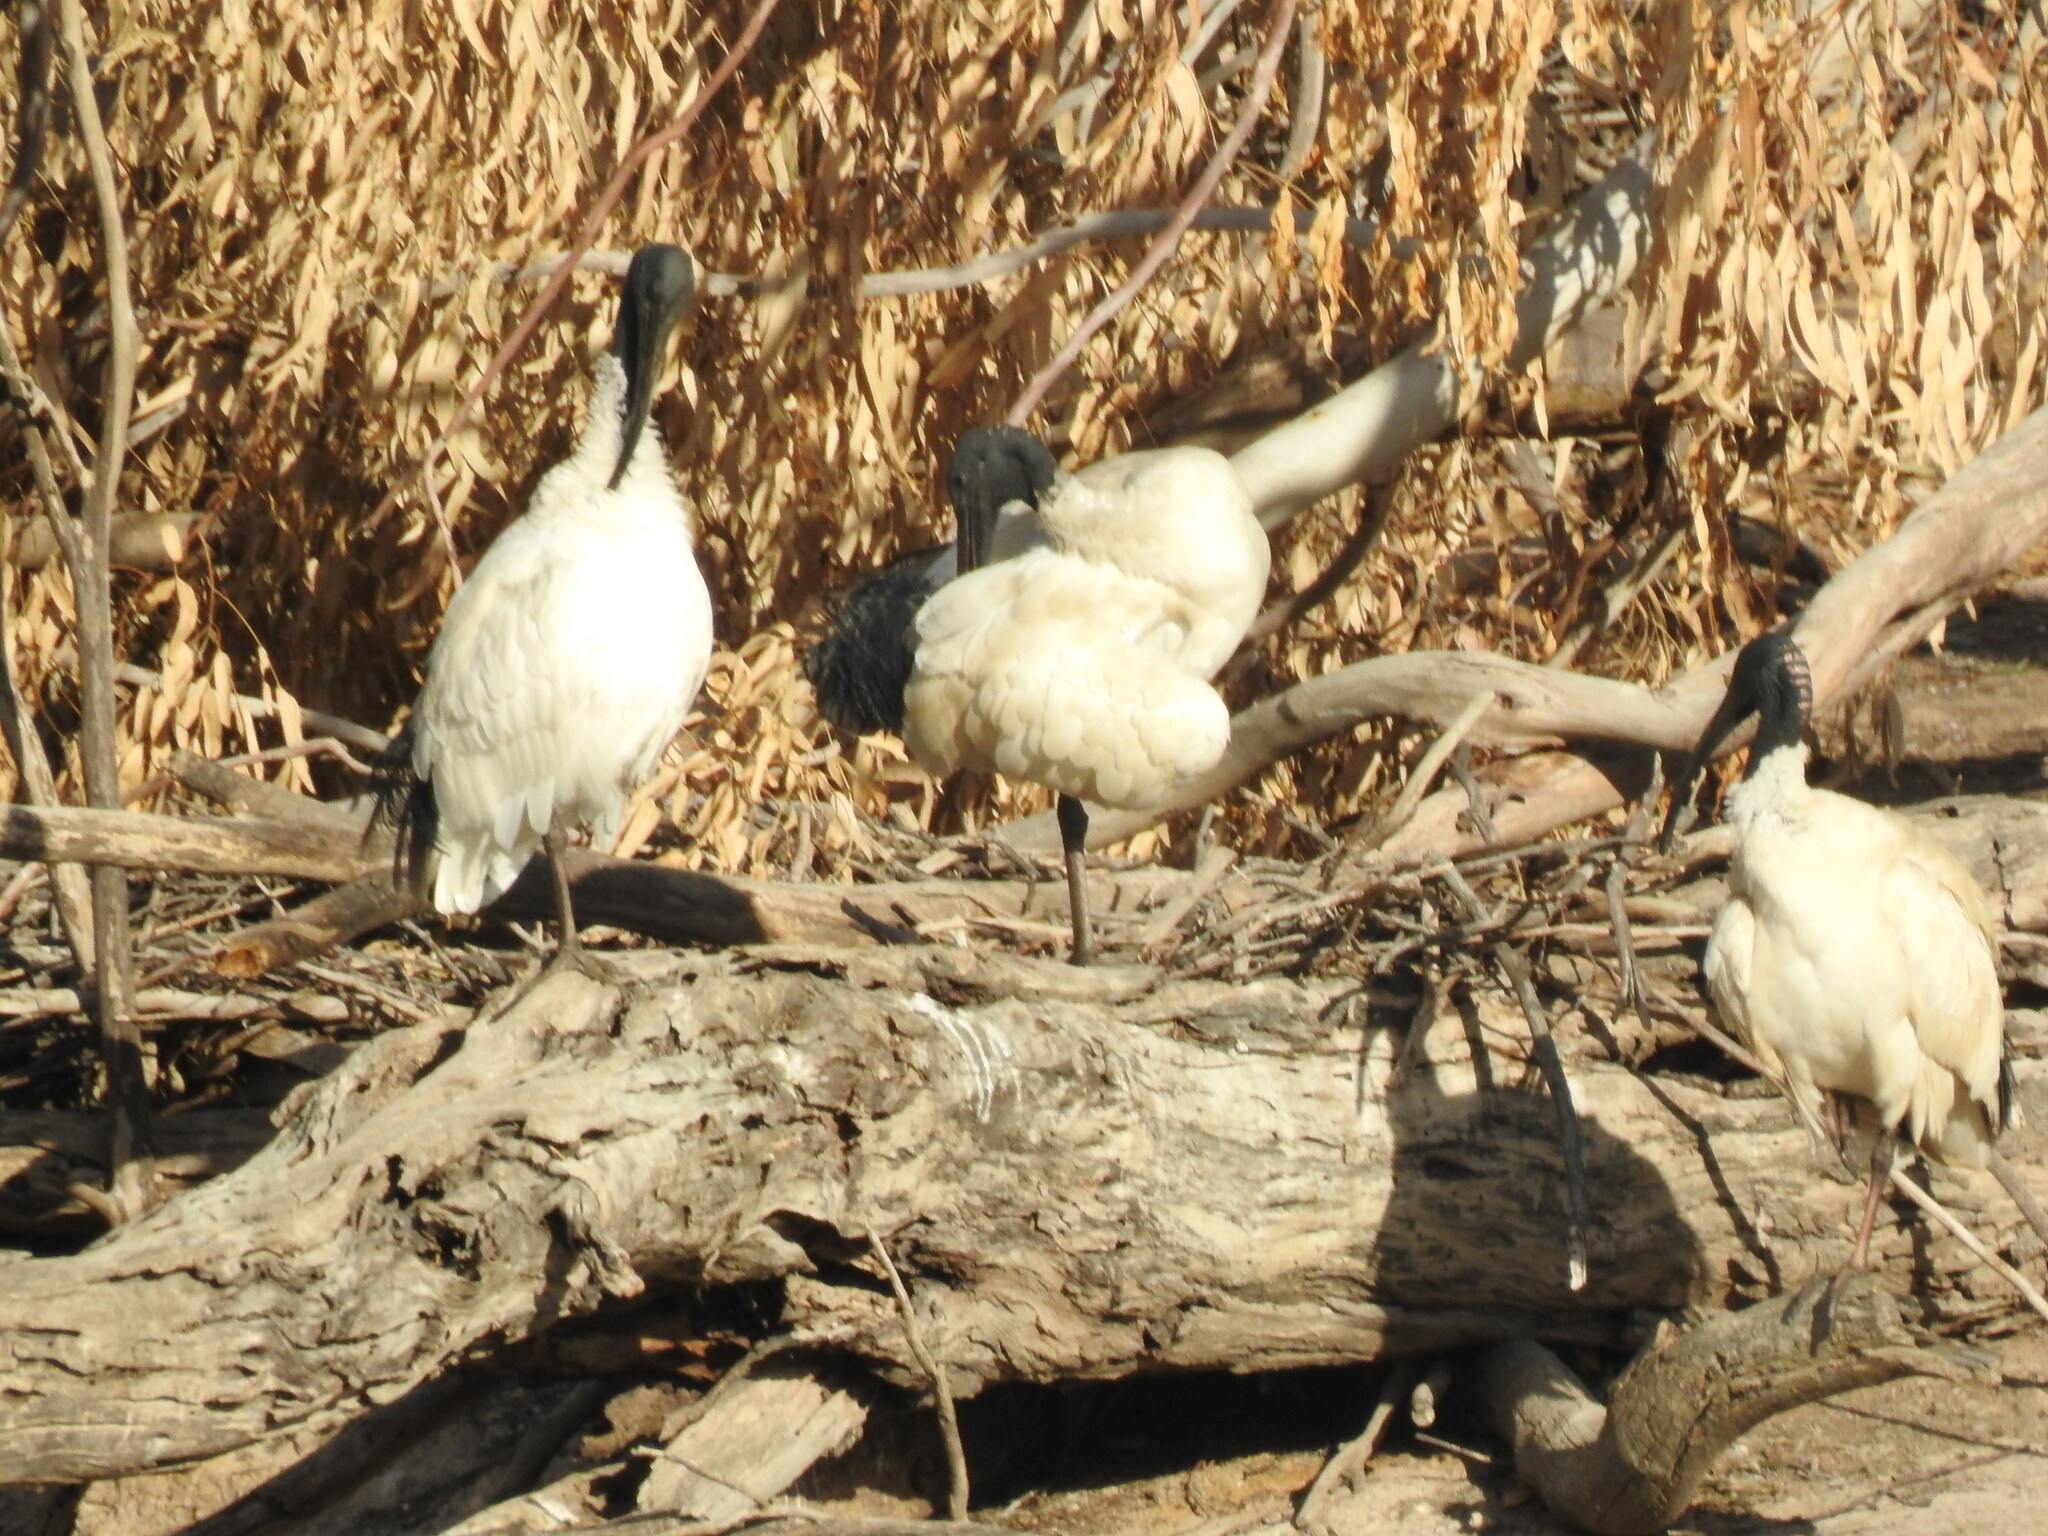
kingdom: Animalia
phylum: Chordata
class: Aves
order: Pelecaniformes
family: Threskiornithidae
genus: Threskiornis
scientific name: Threskiornis molucca
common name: Australian white ibis
